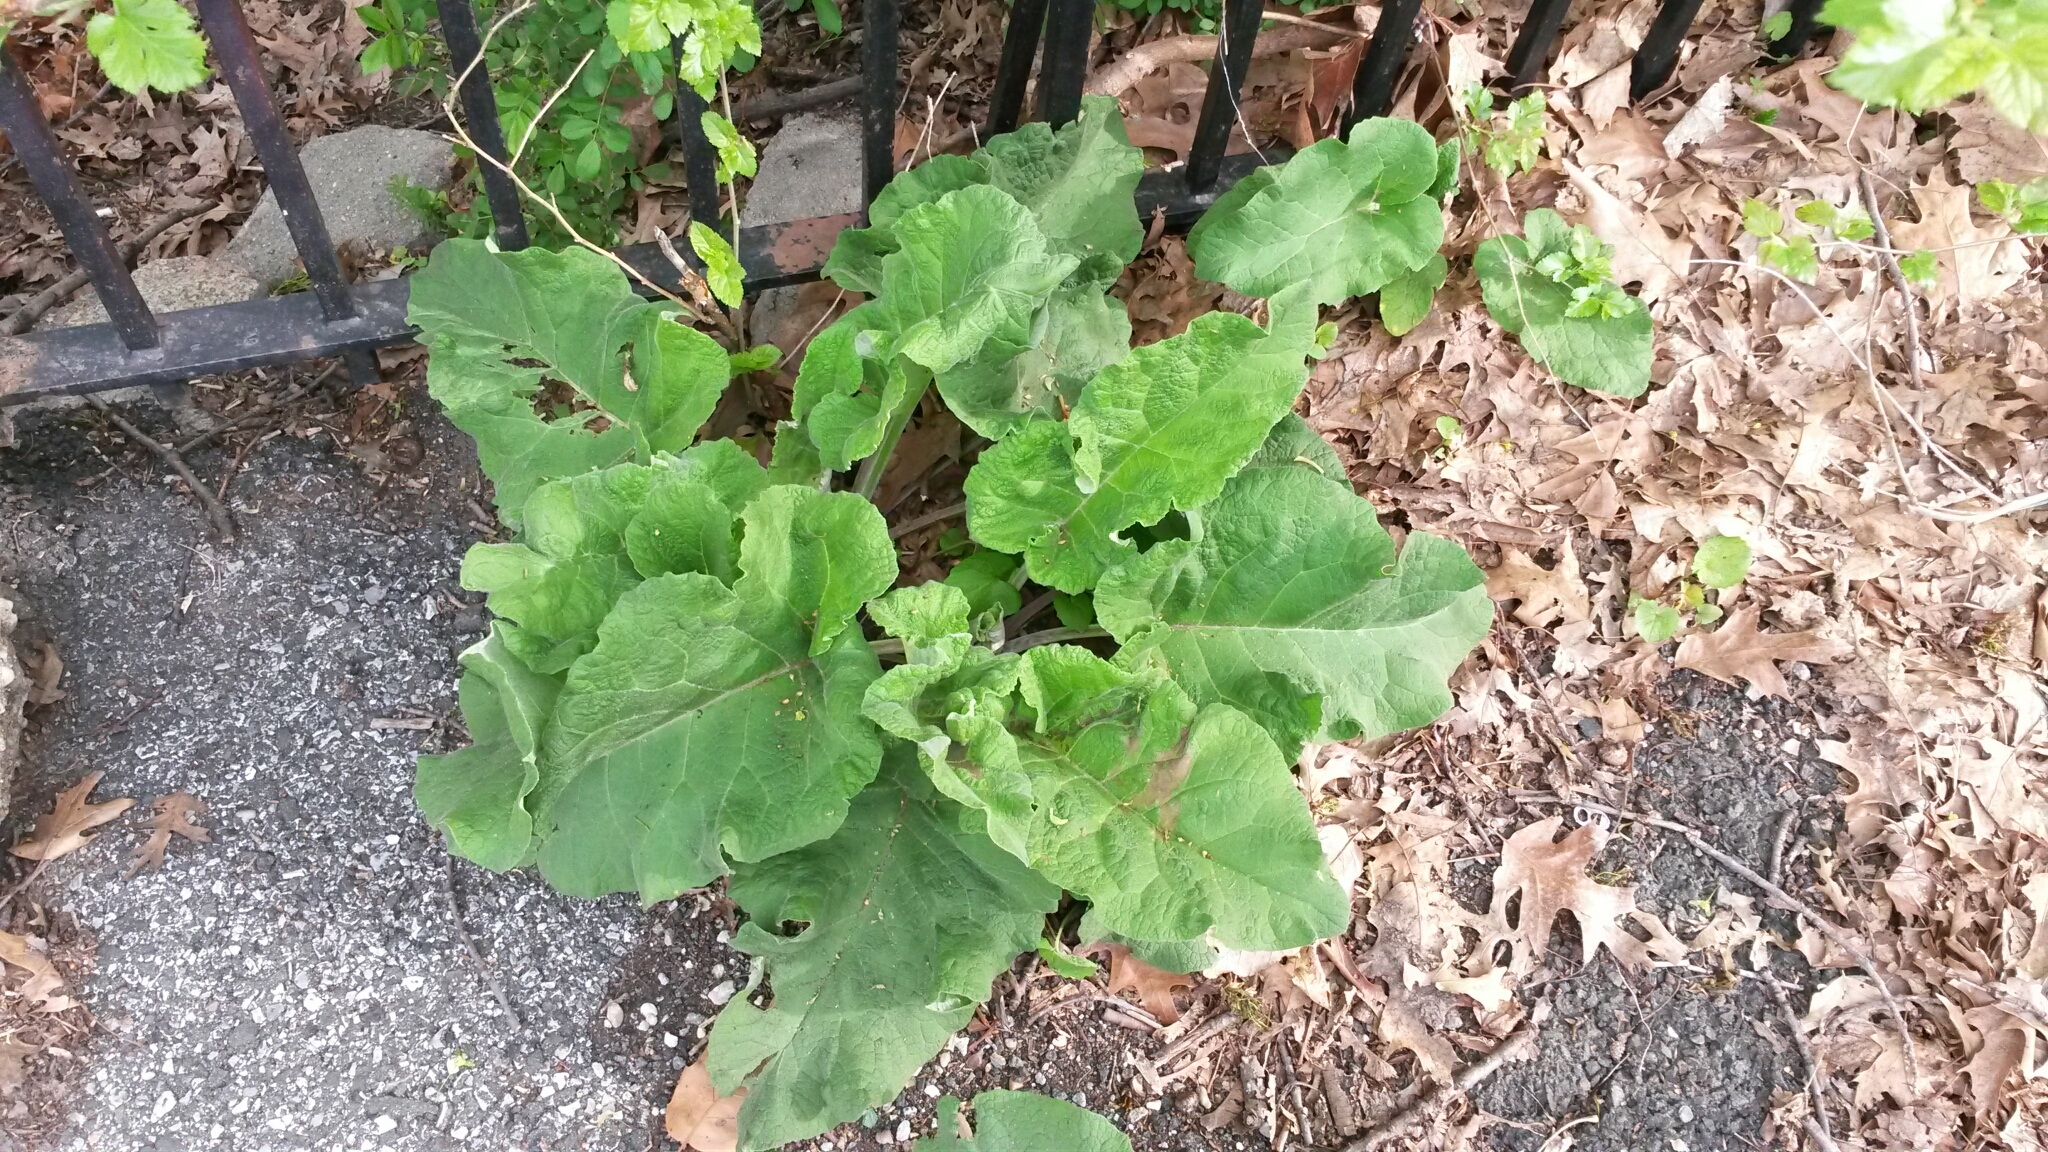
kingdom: Plantae
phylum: Tracheophyta
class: Magnoliopsida
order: Asterales
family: Asteraceae
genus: Arctium
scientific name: Arctium
